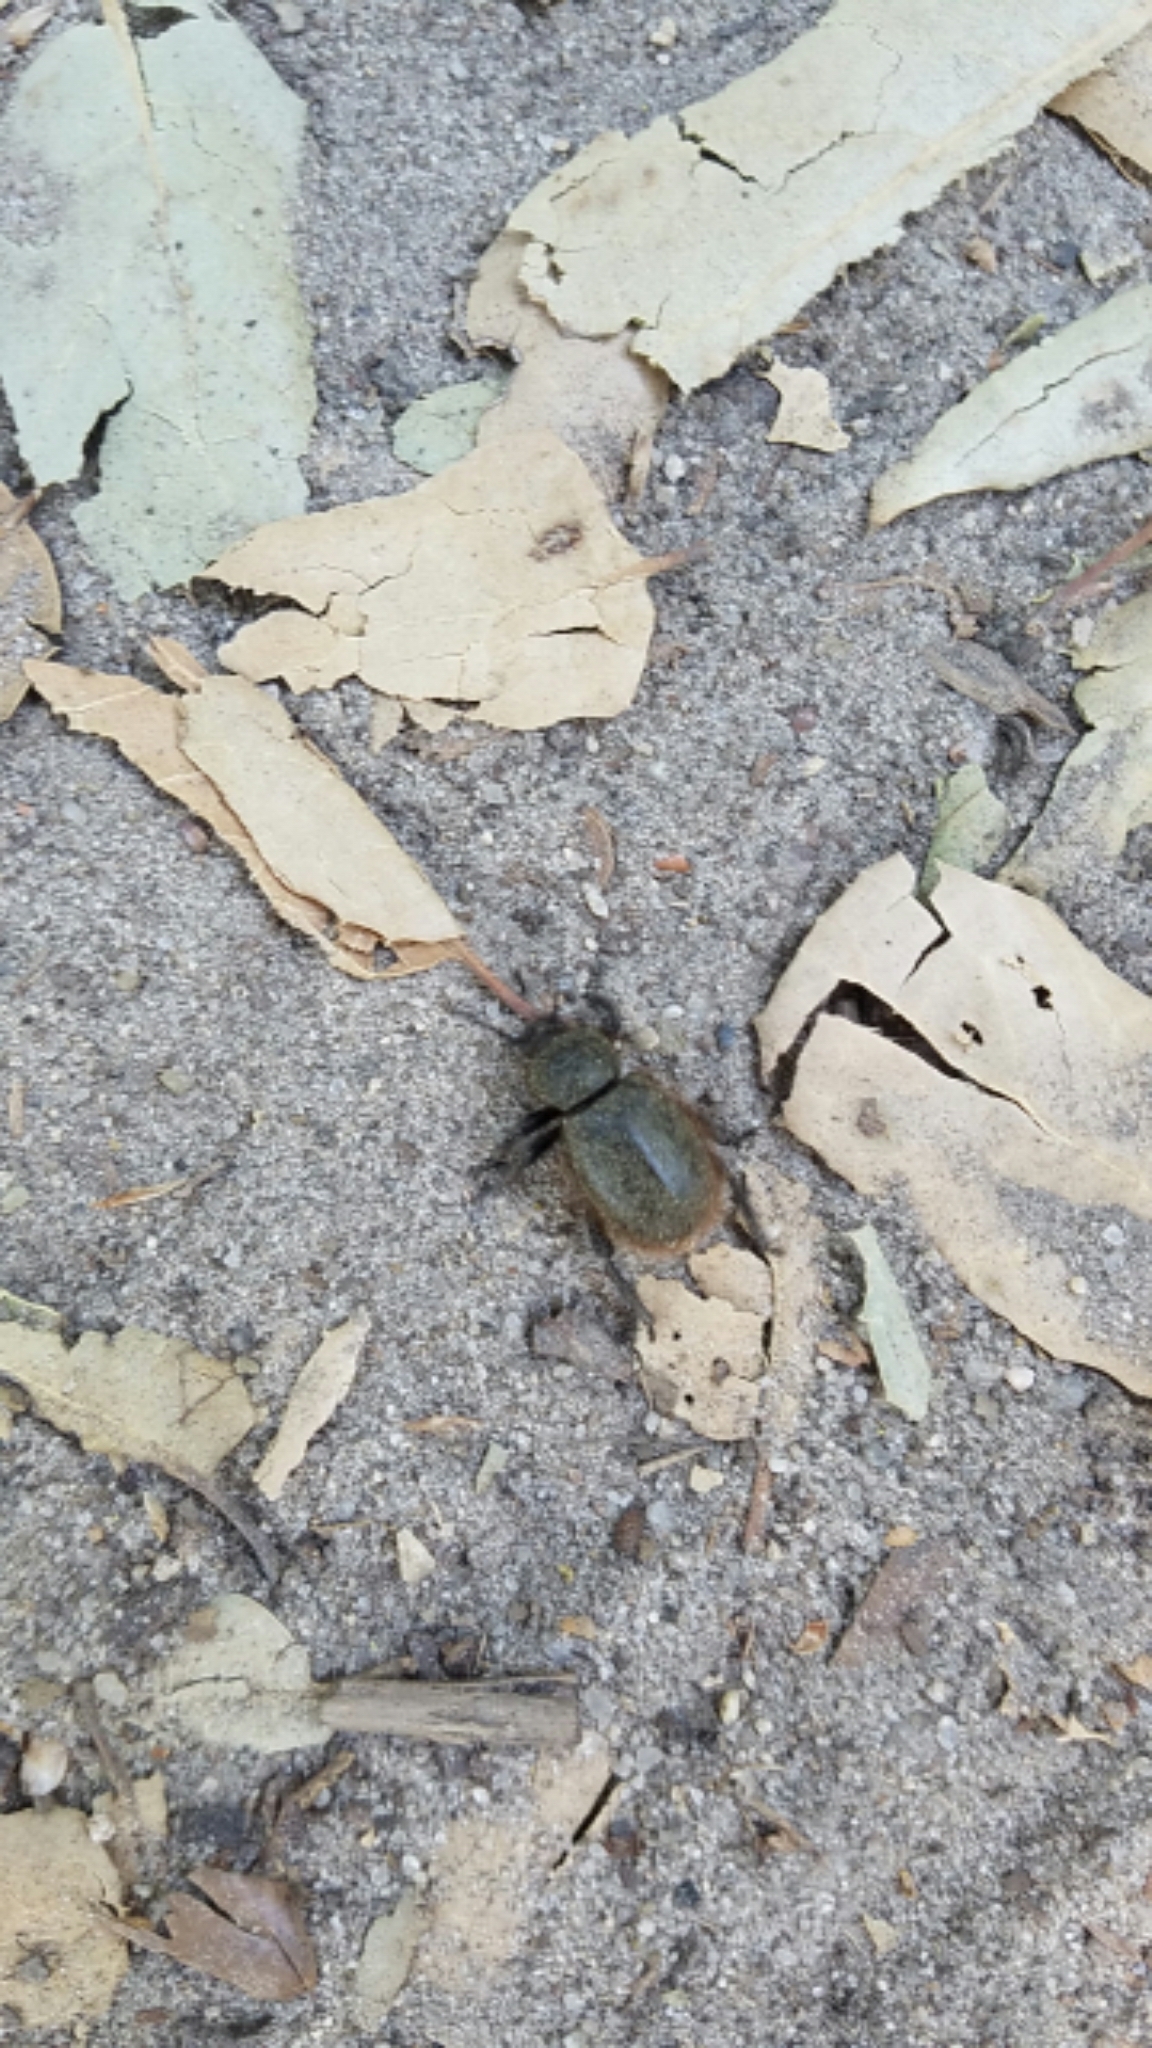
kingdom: Animalia
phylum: Arthropoda
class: Insecta
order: Coleoptera
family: Tenebrionidae
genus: Eleodes
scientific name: Eleodes osculans
